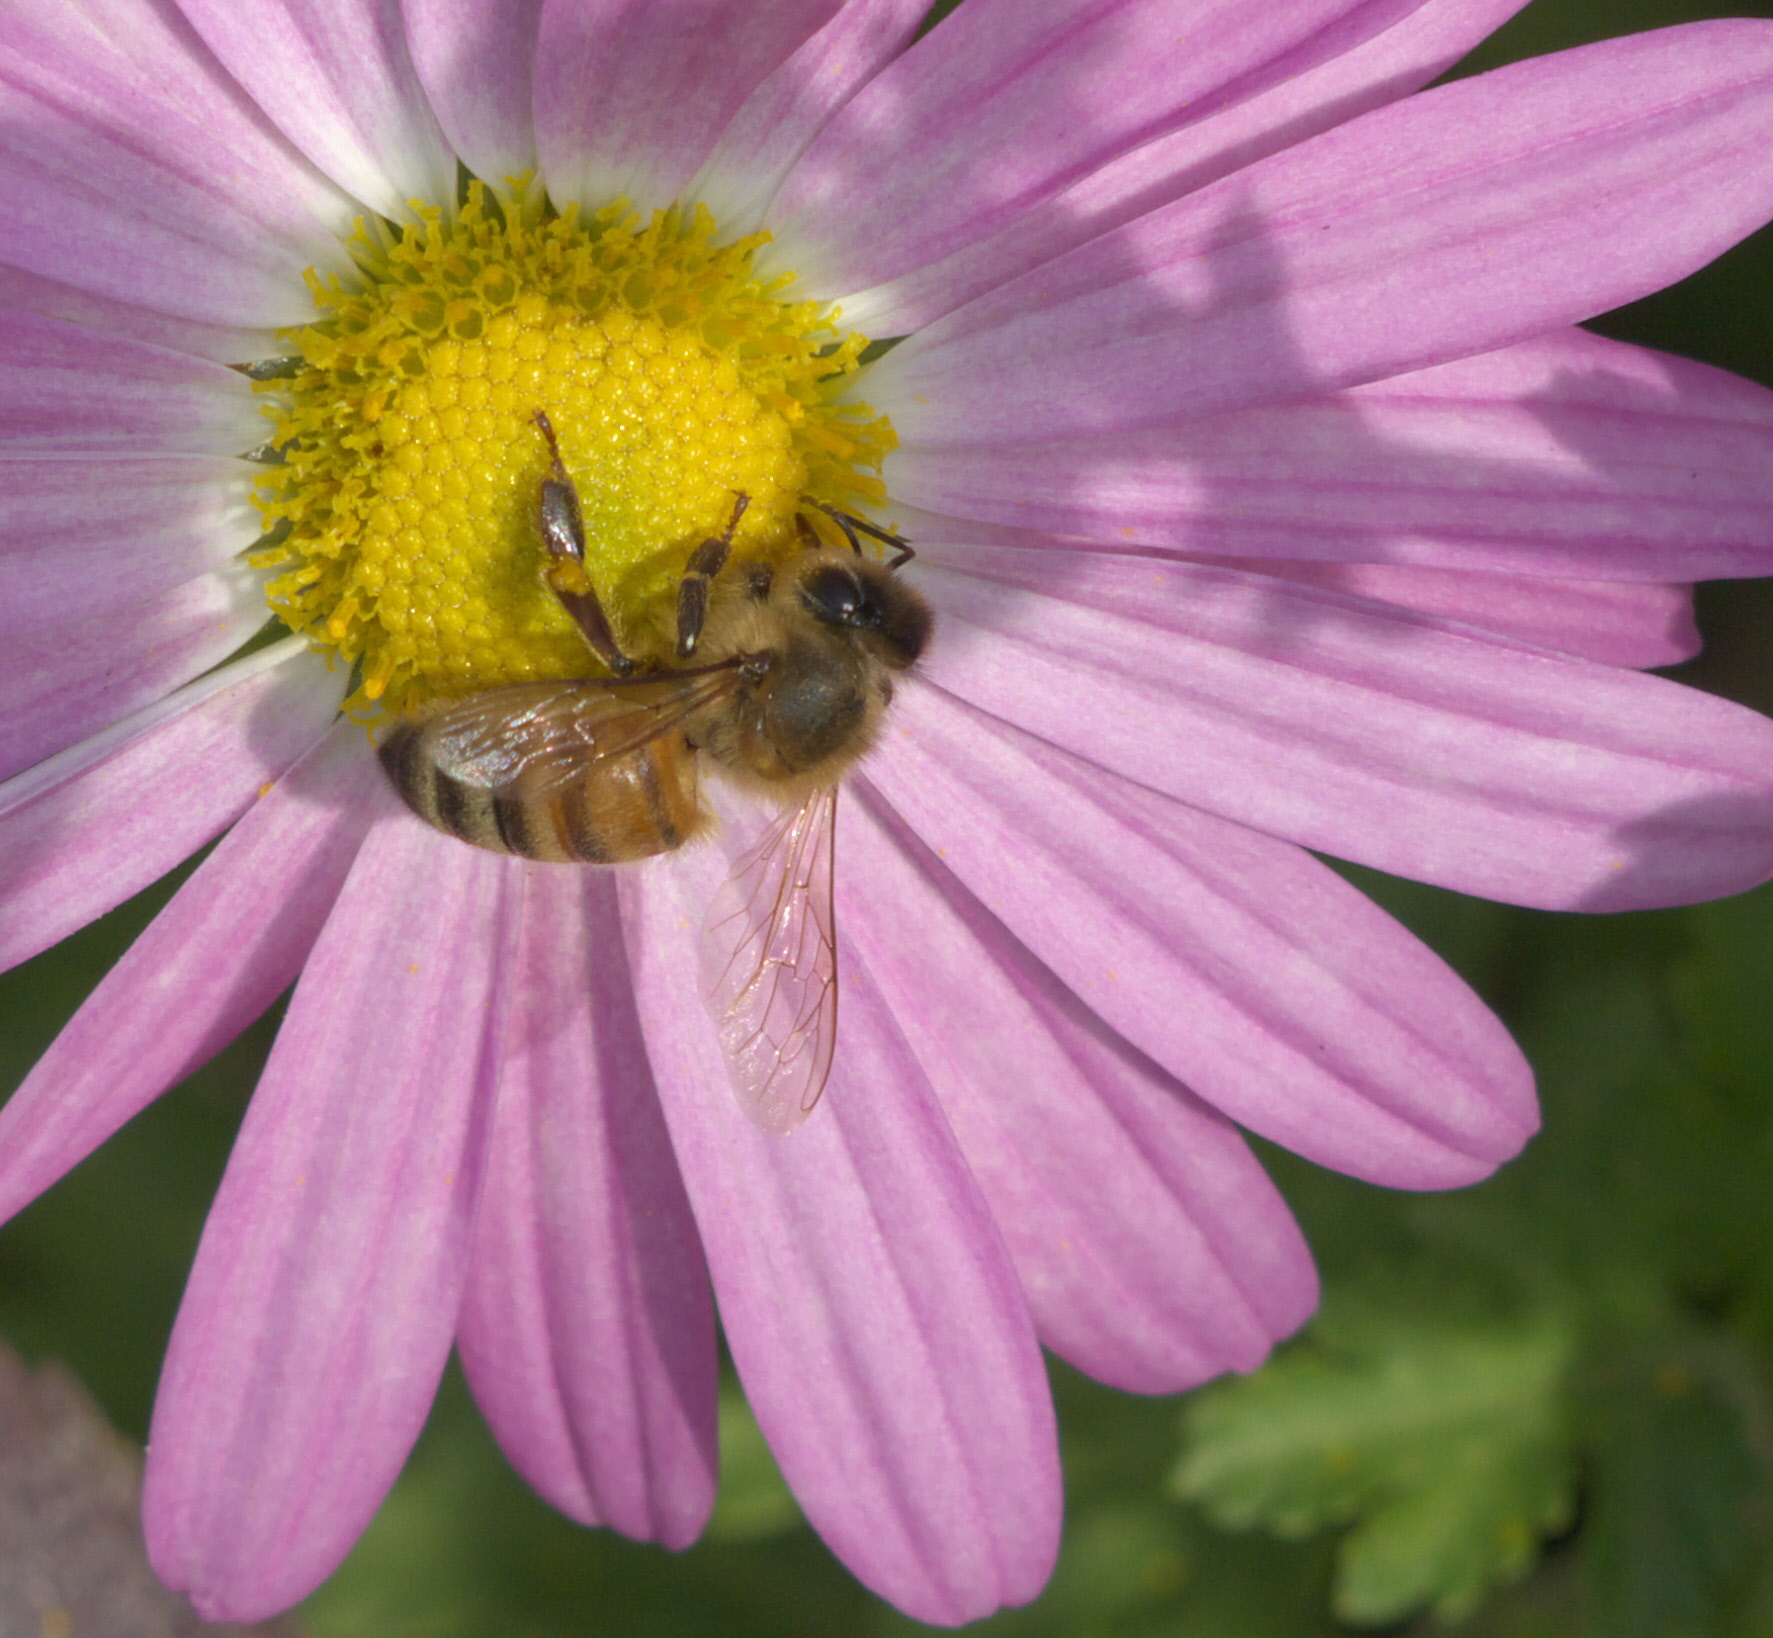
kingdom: Animalia
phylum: Arthropoda
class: Insecta
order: Hymenoptera
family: Apidae
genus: Apis
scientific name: Apis mellifera
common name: Honey bee
